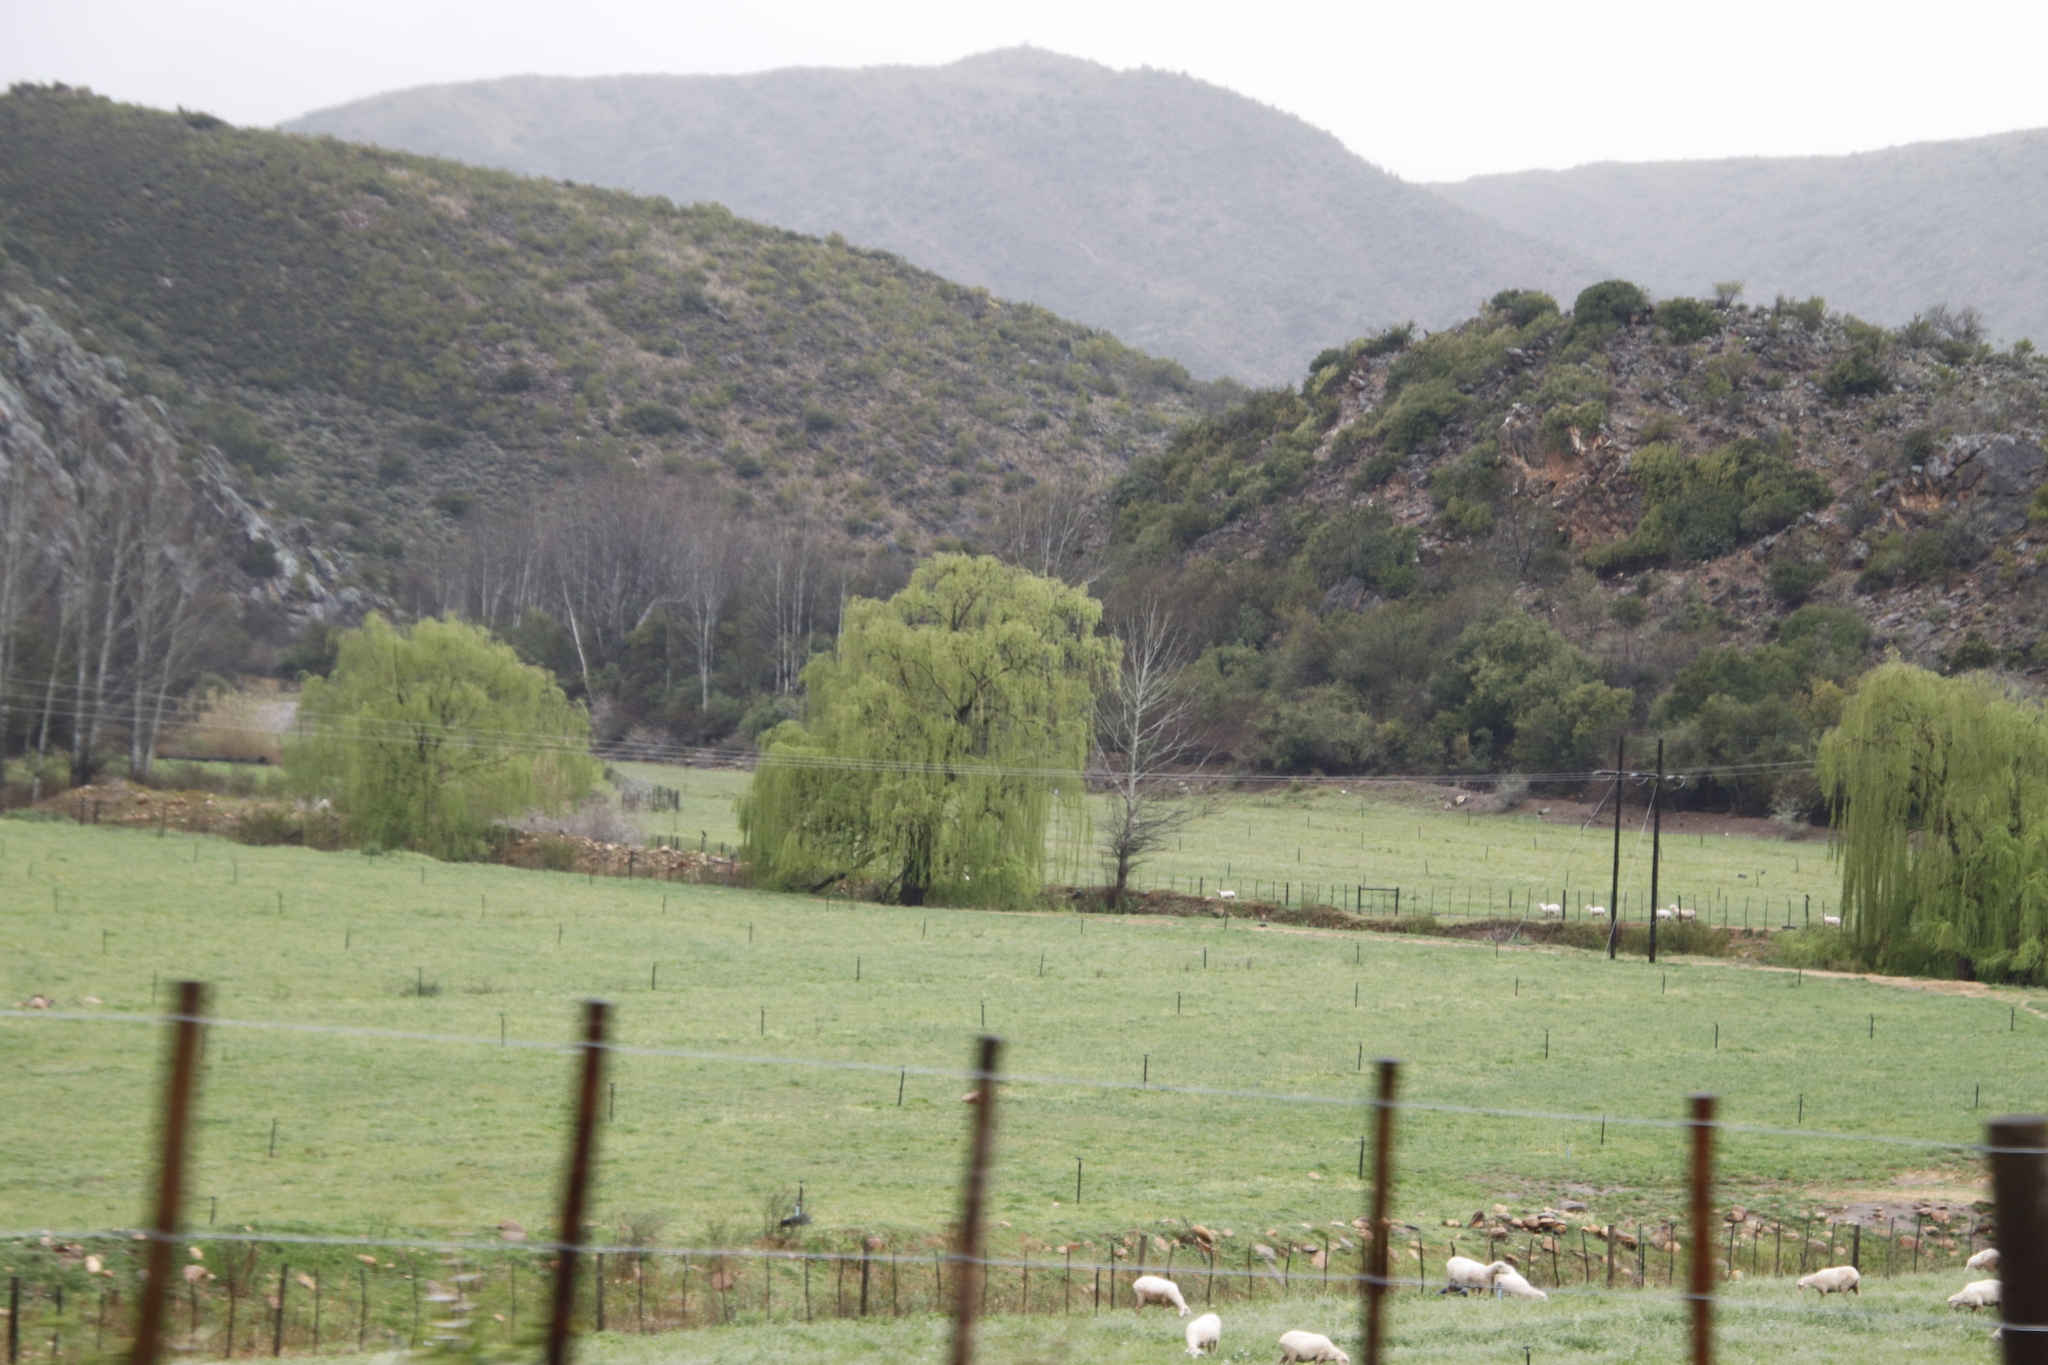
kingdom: Plantae
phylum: Tracheophyta
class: Magnoliopsida
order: Malpighiales
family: Salicaceae
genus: Salix
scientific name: Salix babylonica
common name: Weeping willow
